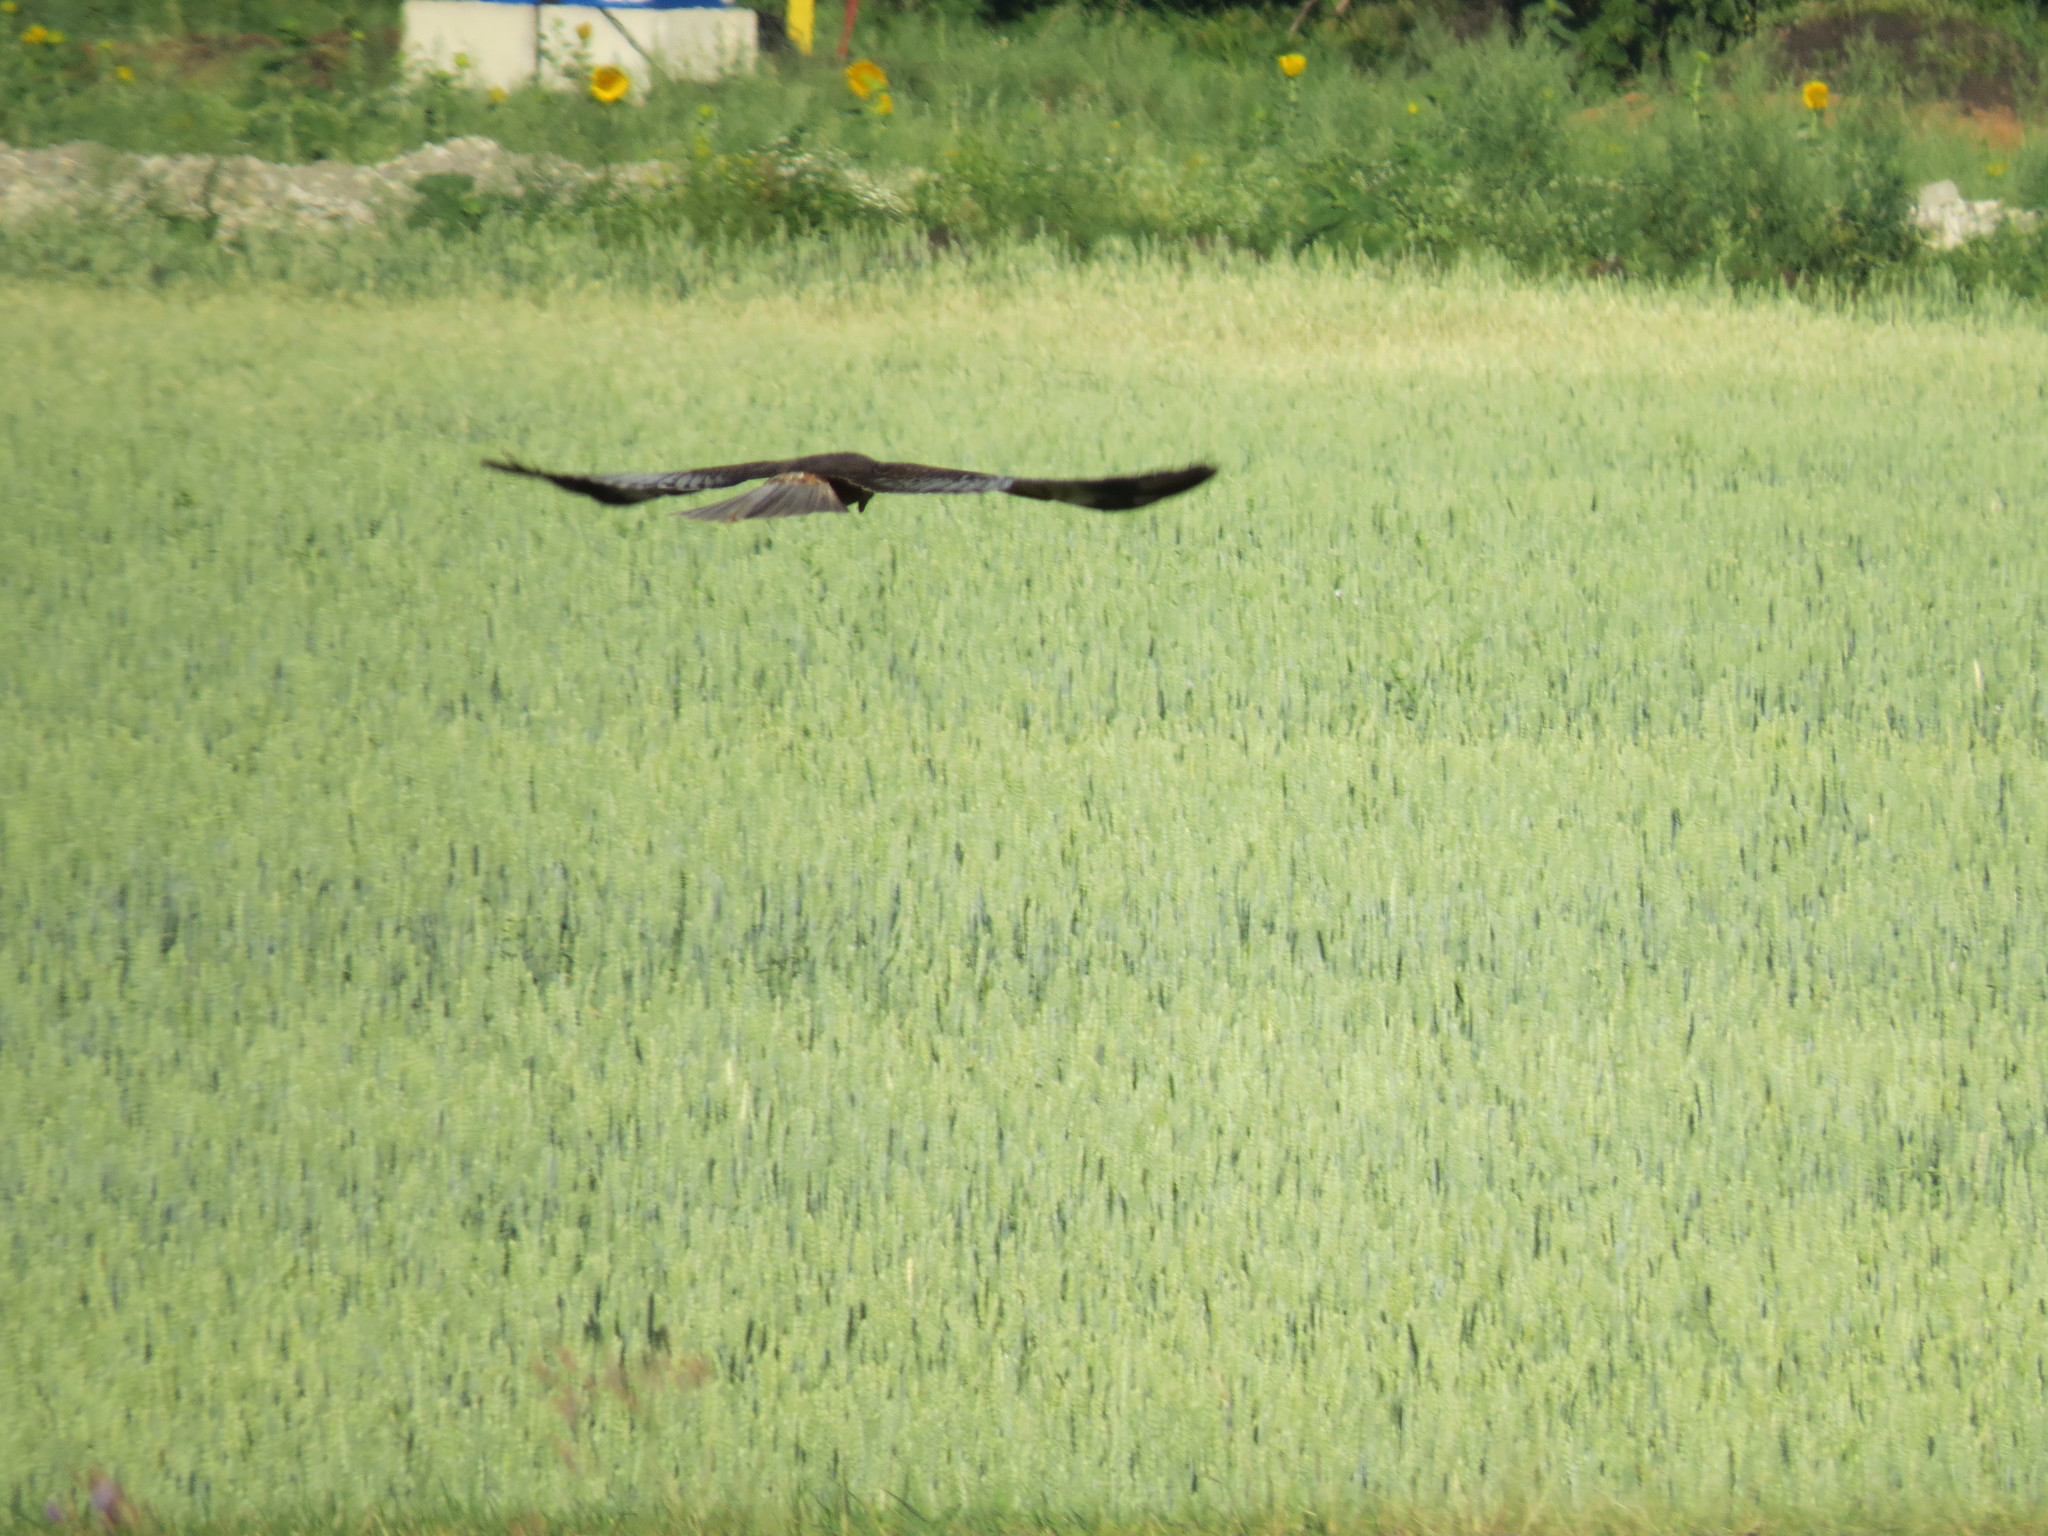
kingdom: Animalia
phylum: Chordata
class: Aves
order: Accipitriformes
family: Accipitridae
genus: Circus
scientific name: Circus aeruginosus
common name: Western marsh harrier
